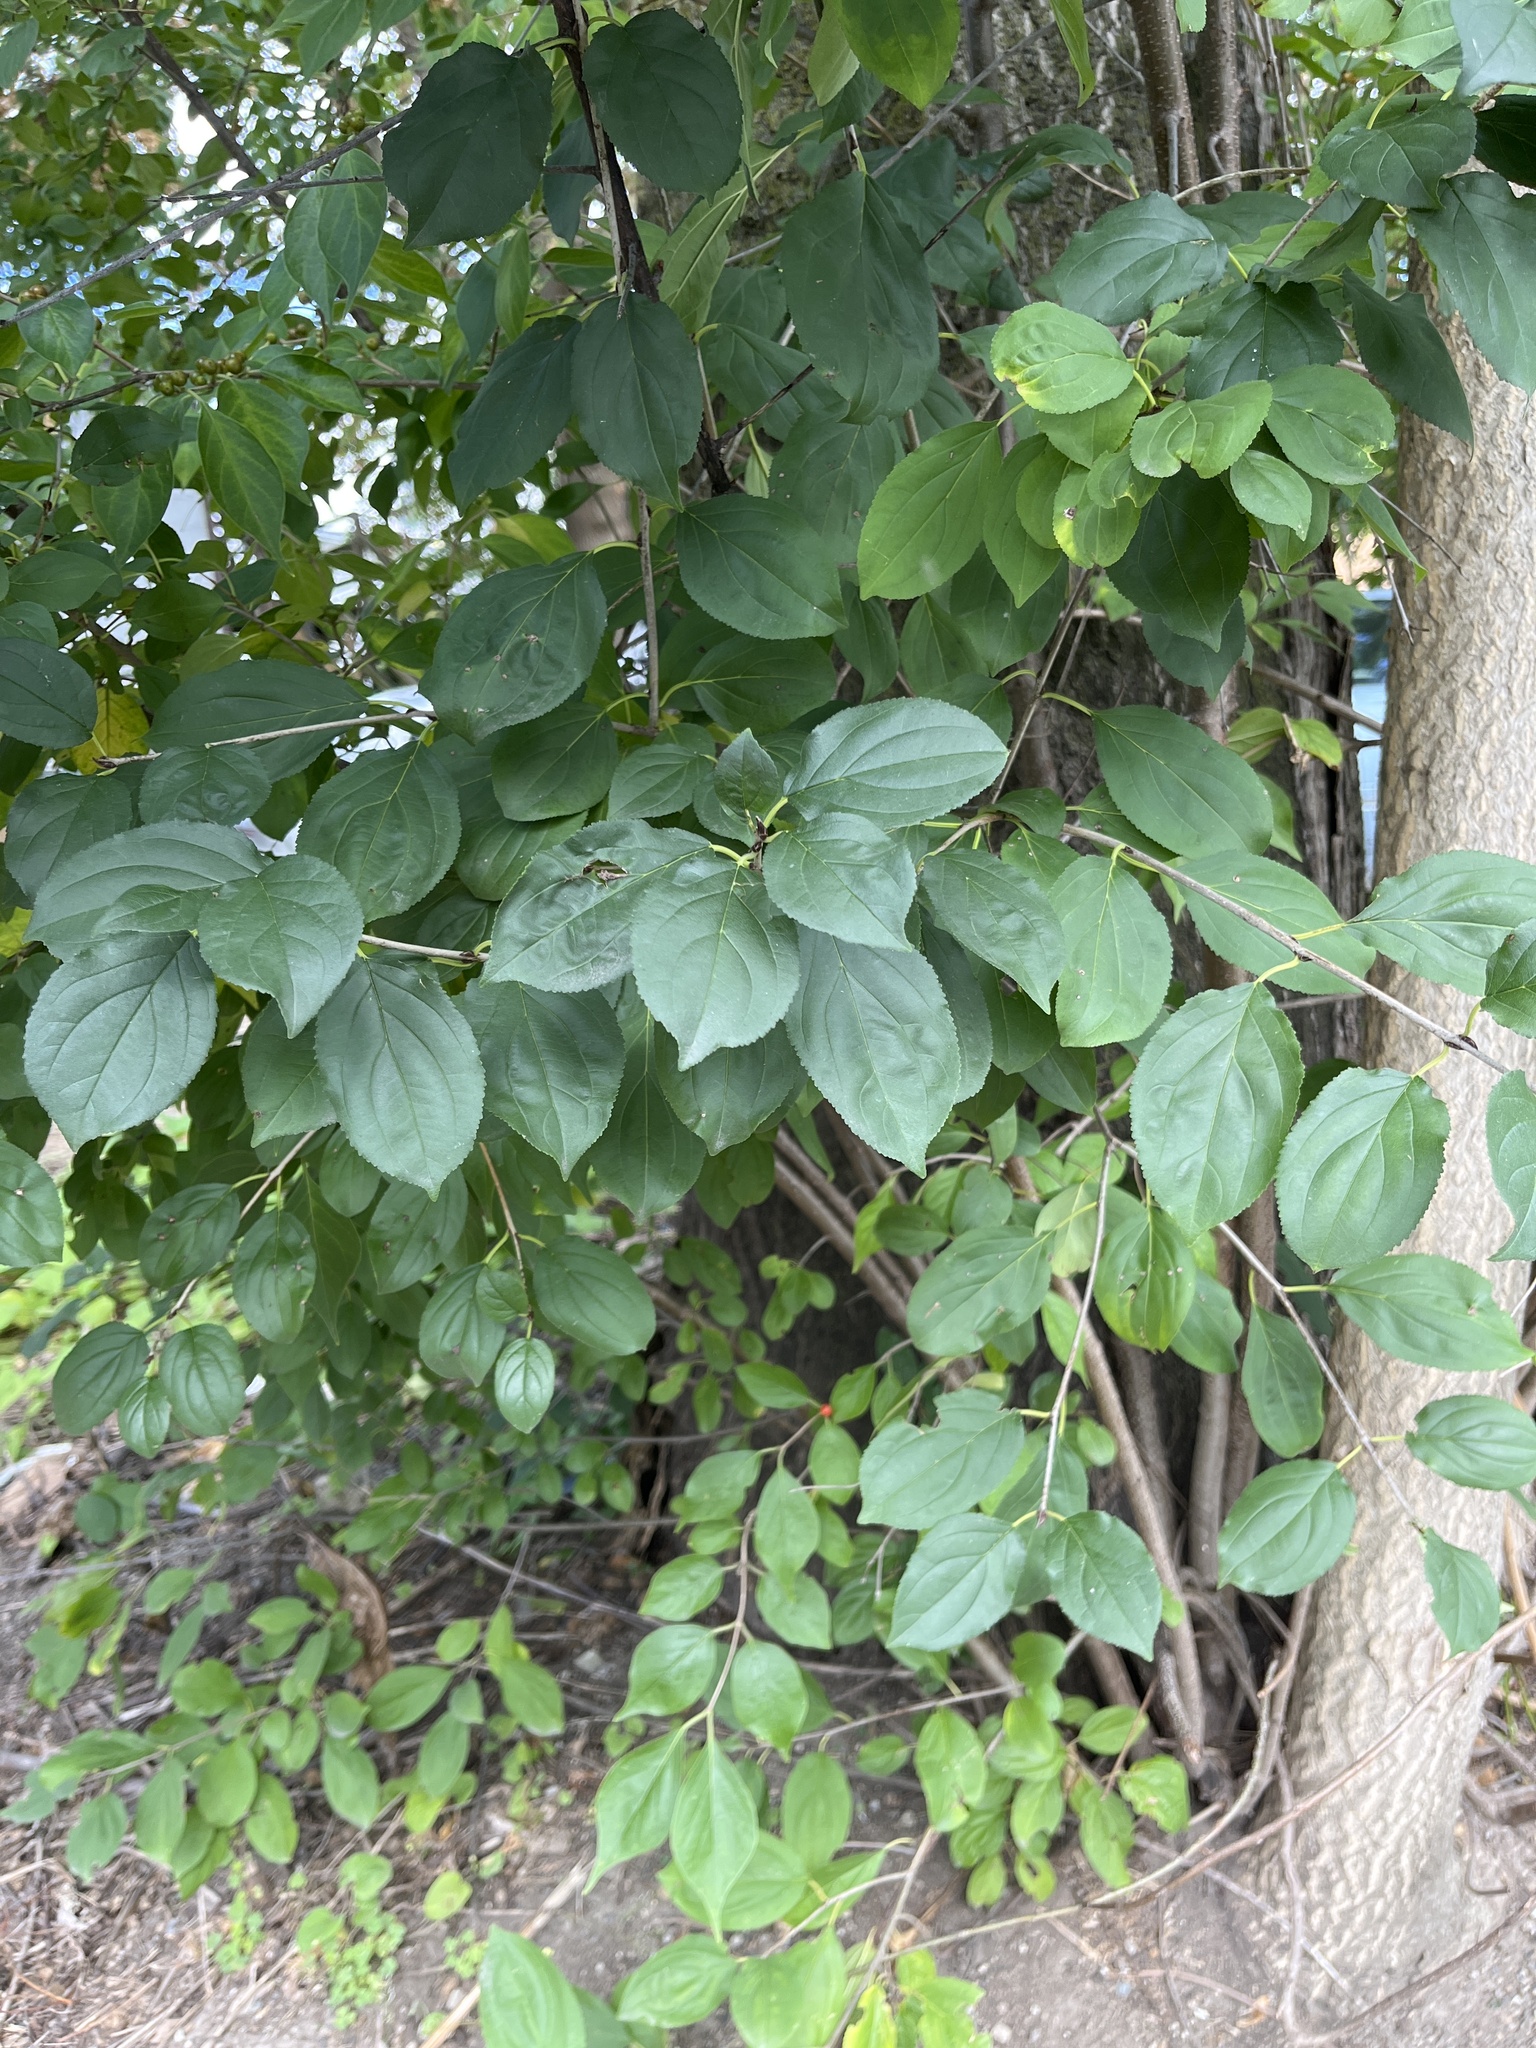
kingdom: Plantae
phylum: Tracheophyta
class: Magnoliopsida
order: Rosales
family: Rhamnaceae
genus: Rhamnus
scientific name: Rhamnus cathartica
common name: Common buckthorn
